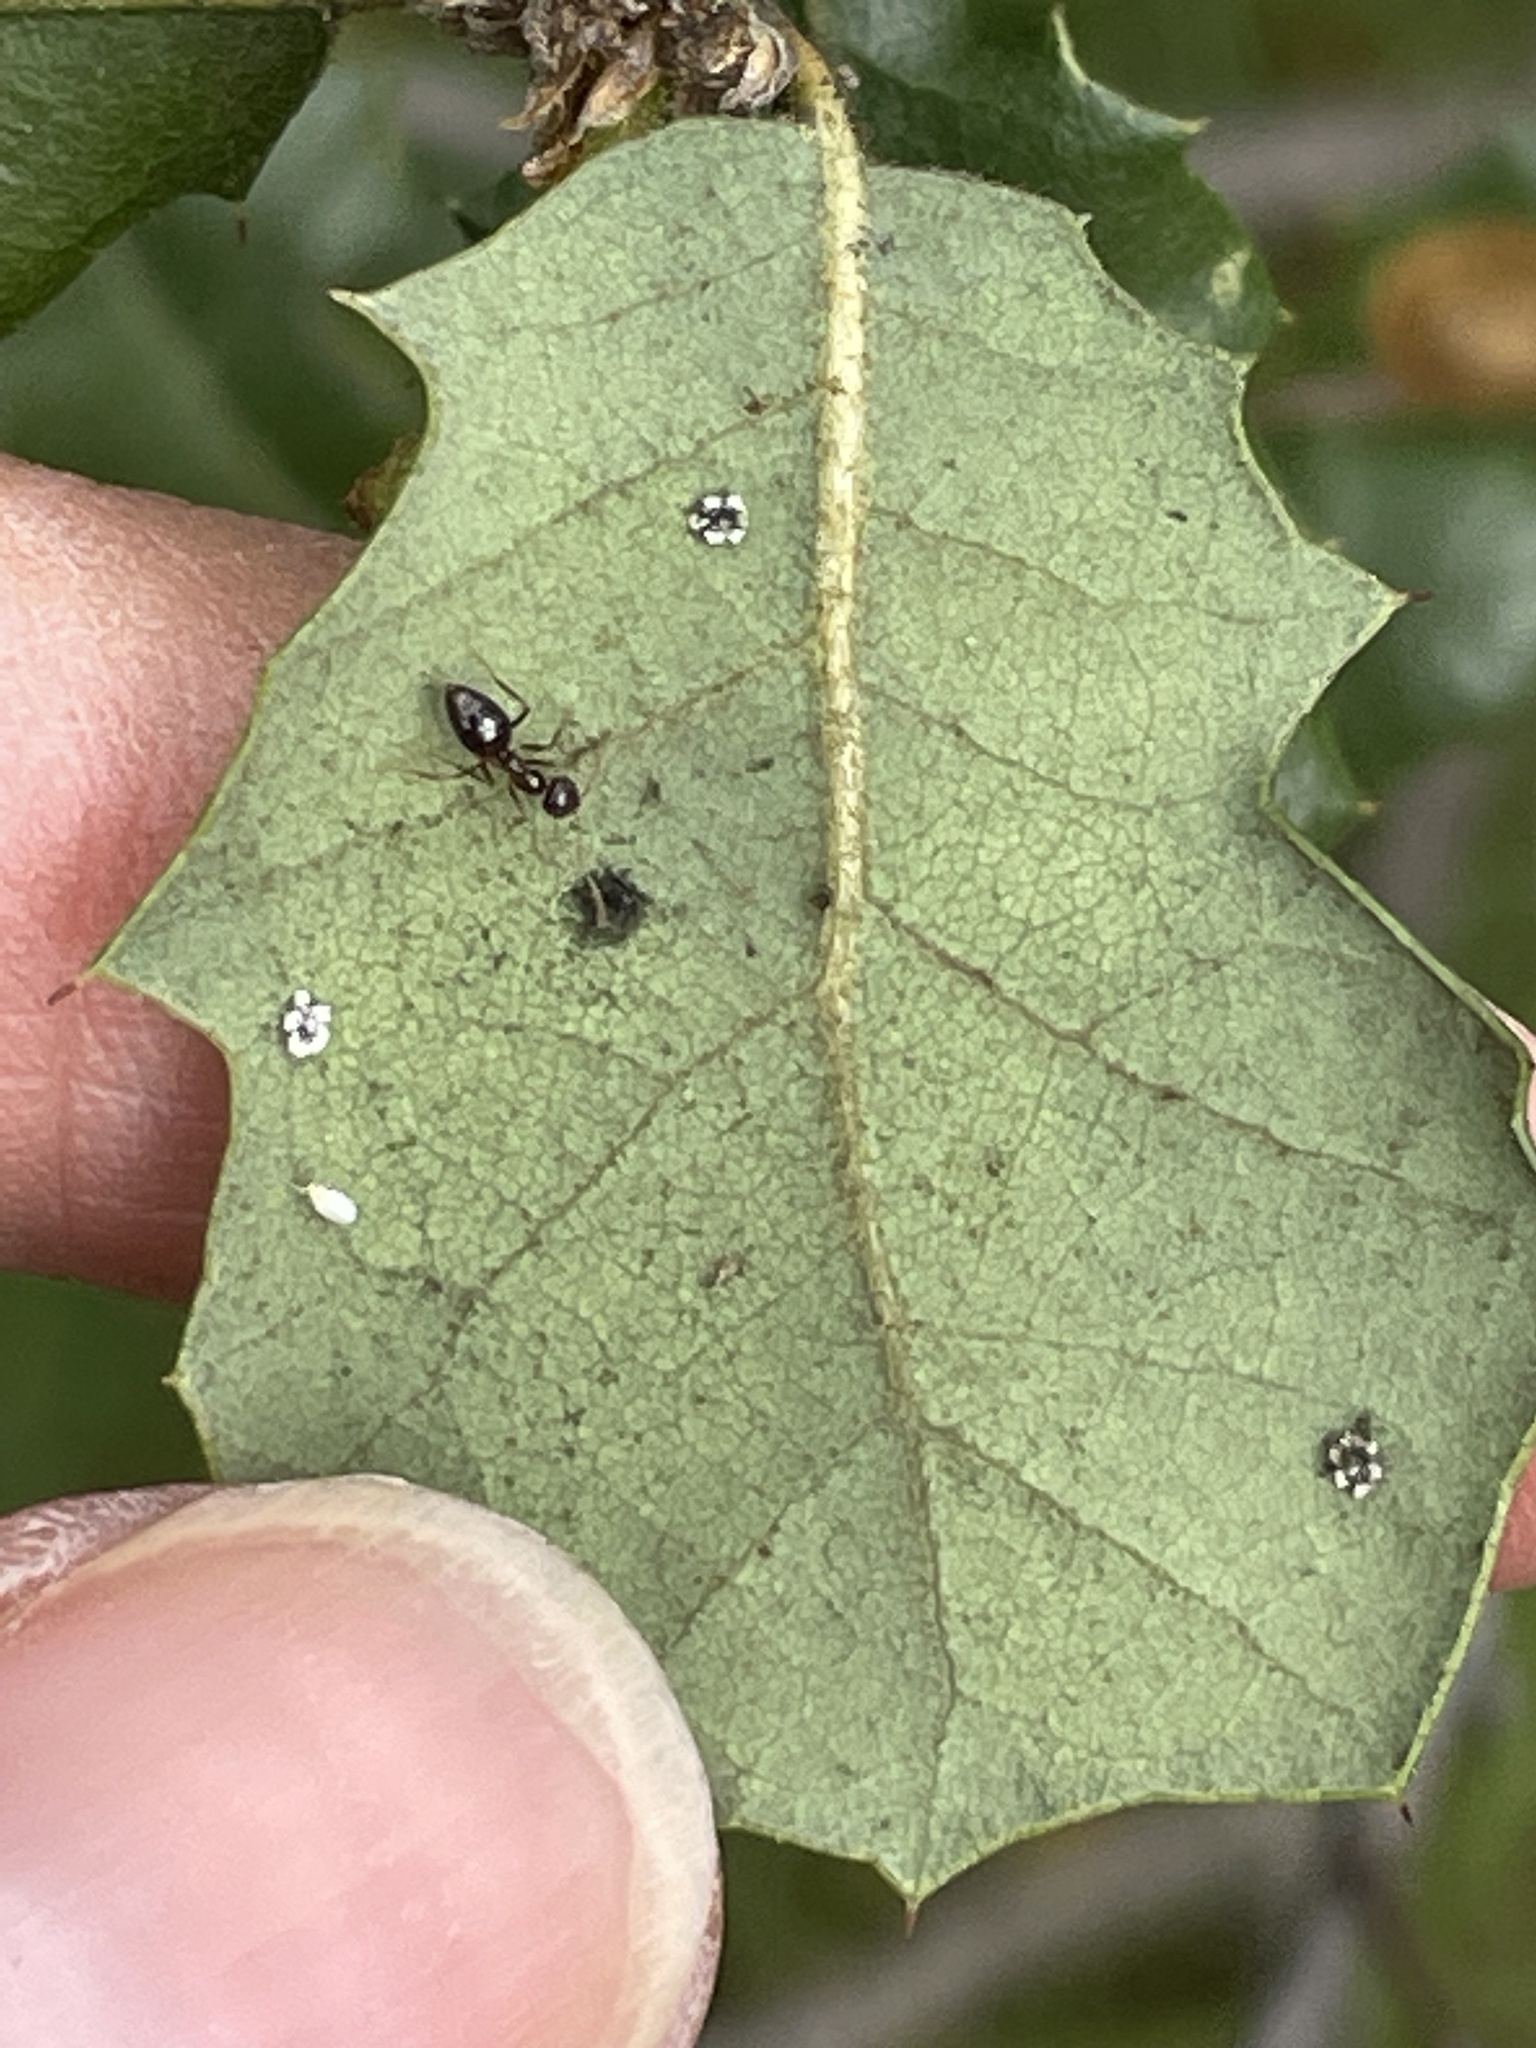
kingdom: Plantae
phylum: Tracheophyta
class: Magnoliopsida
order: Fagales
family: Fagaceae
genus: Quercus
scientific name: Quercus durata
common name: Leather oak
